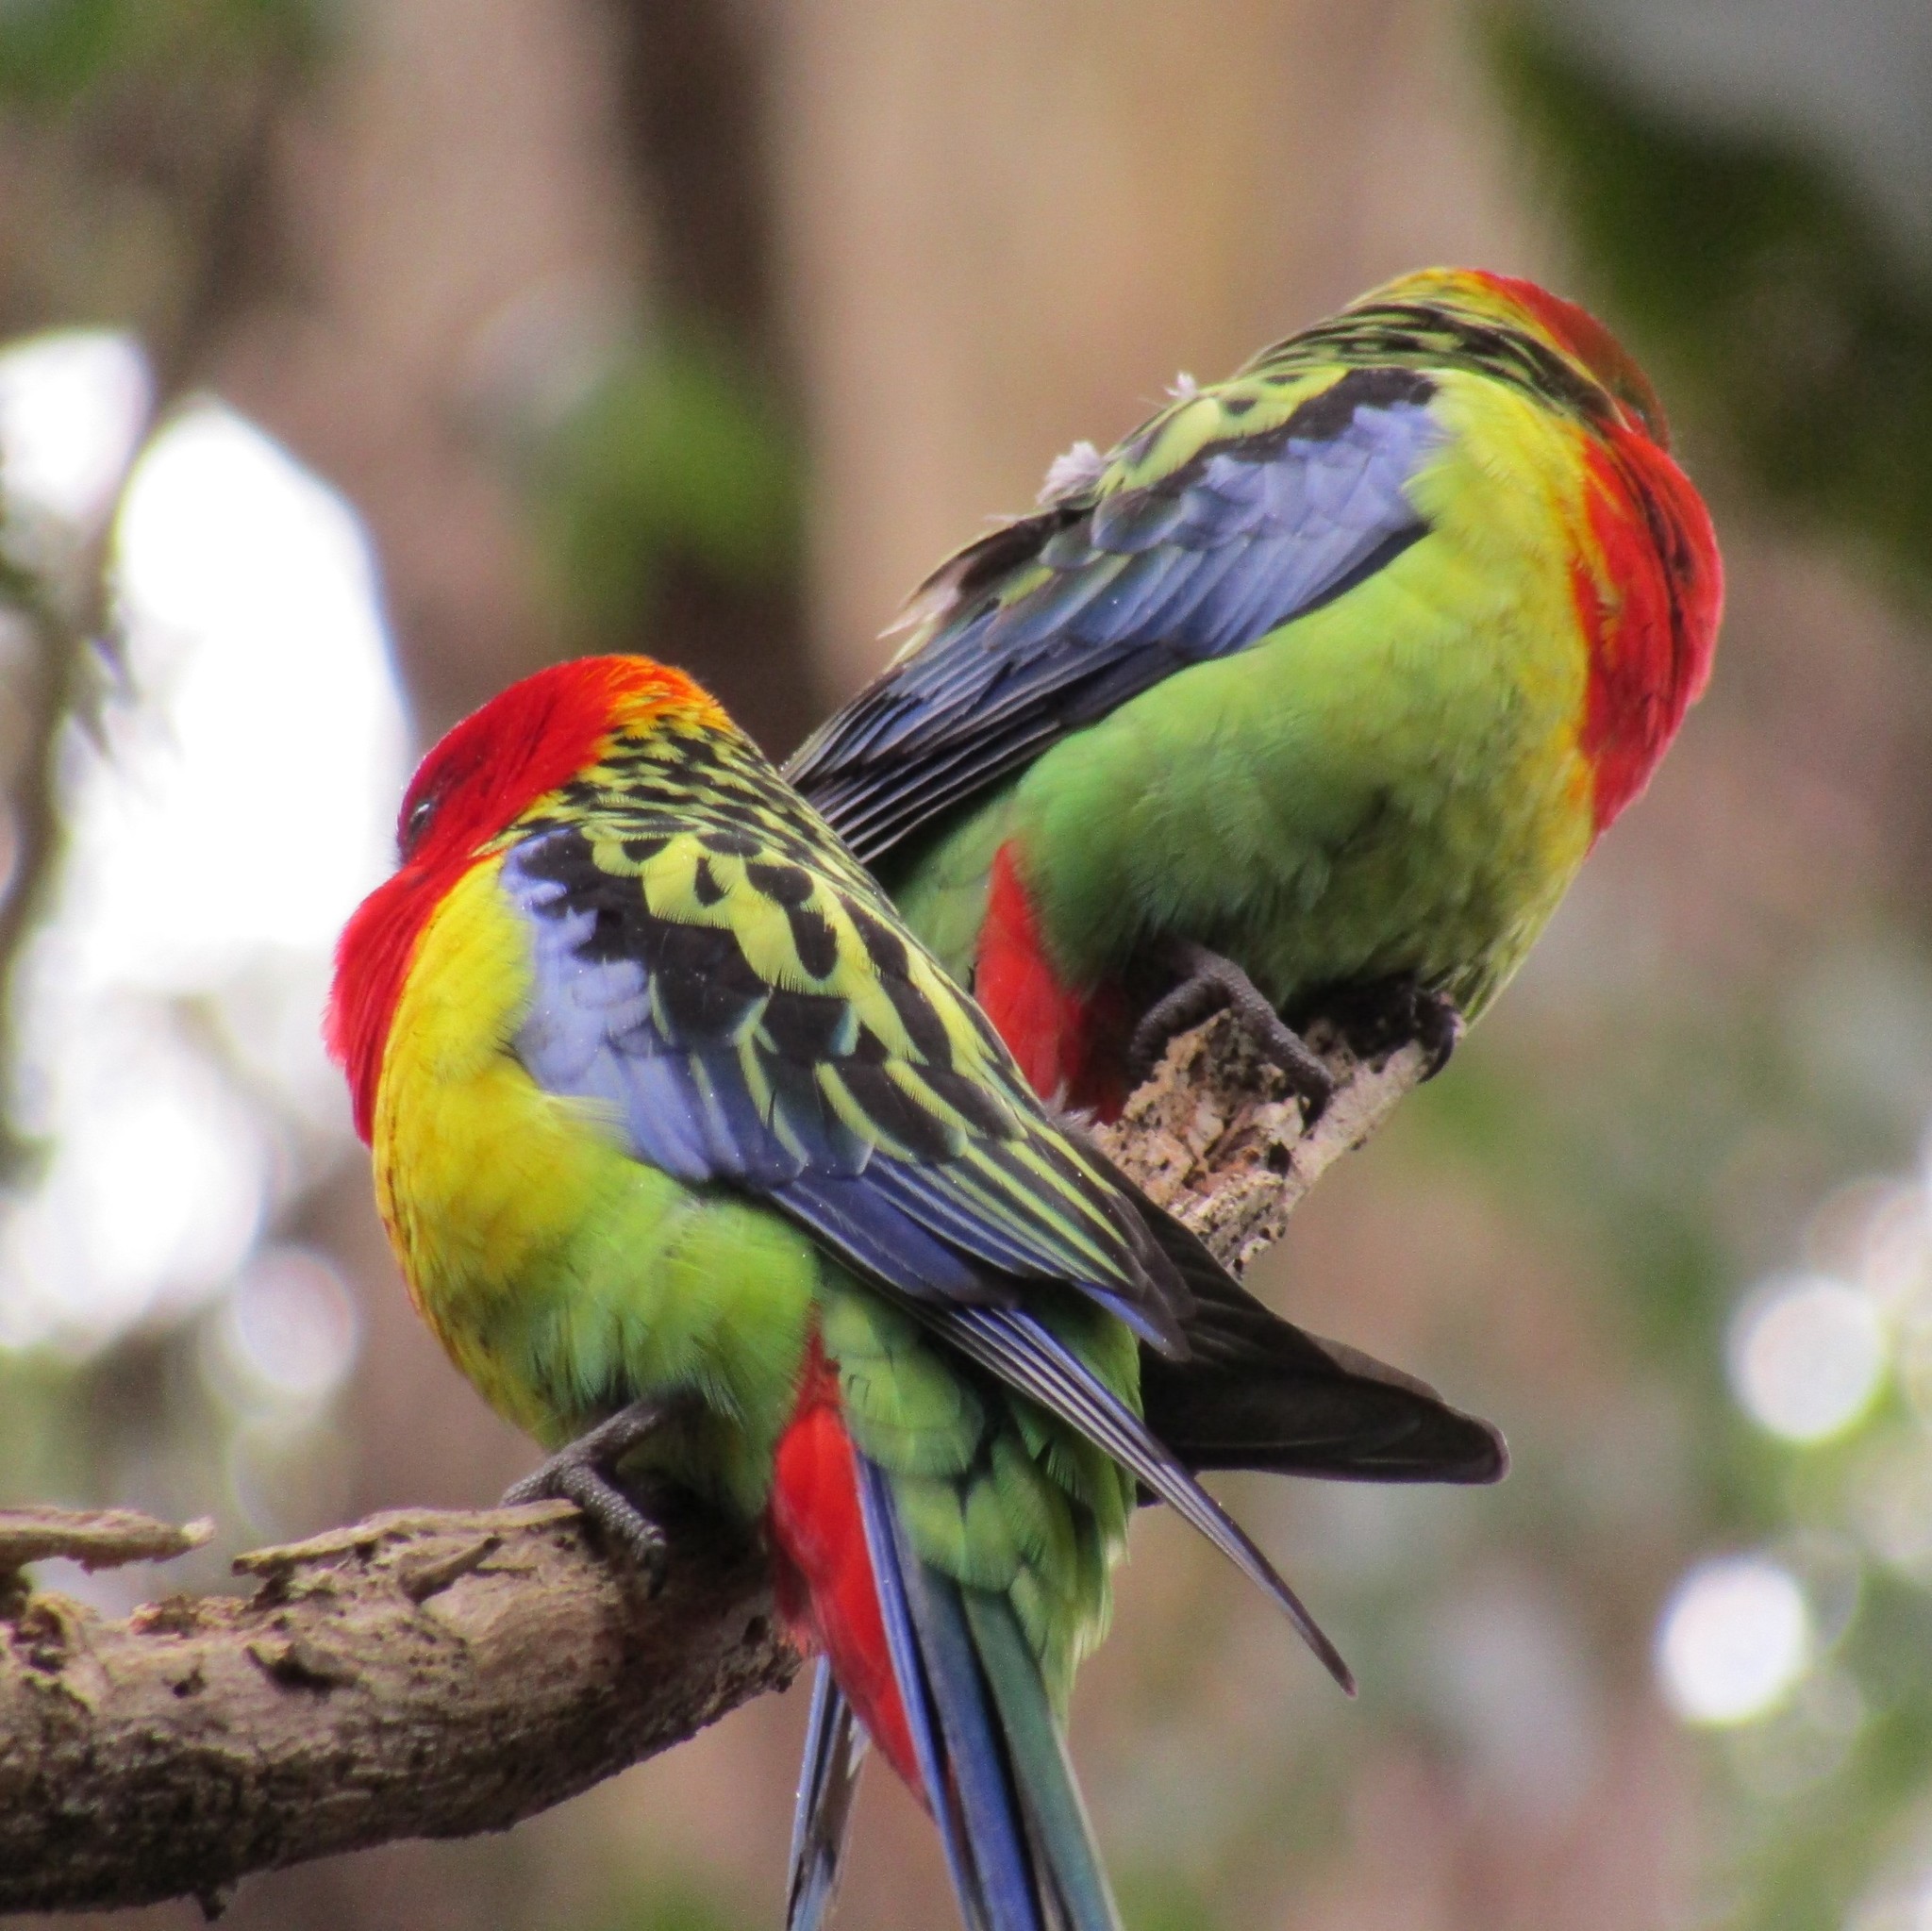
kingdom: Animalia
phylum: Chordata
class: Aves
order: Psittaciformes
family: Psittacidae
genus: Platycercus
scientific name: Platycercus eximius
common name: Eastern rosella
